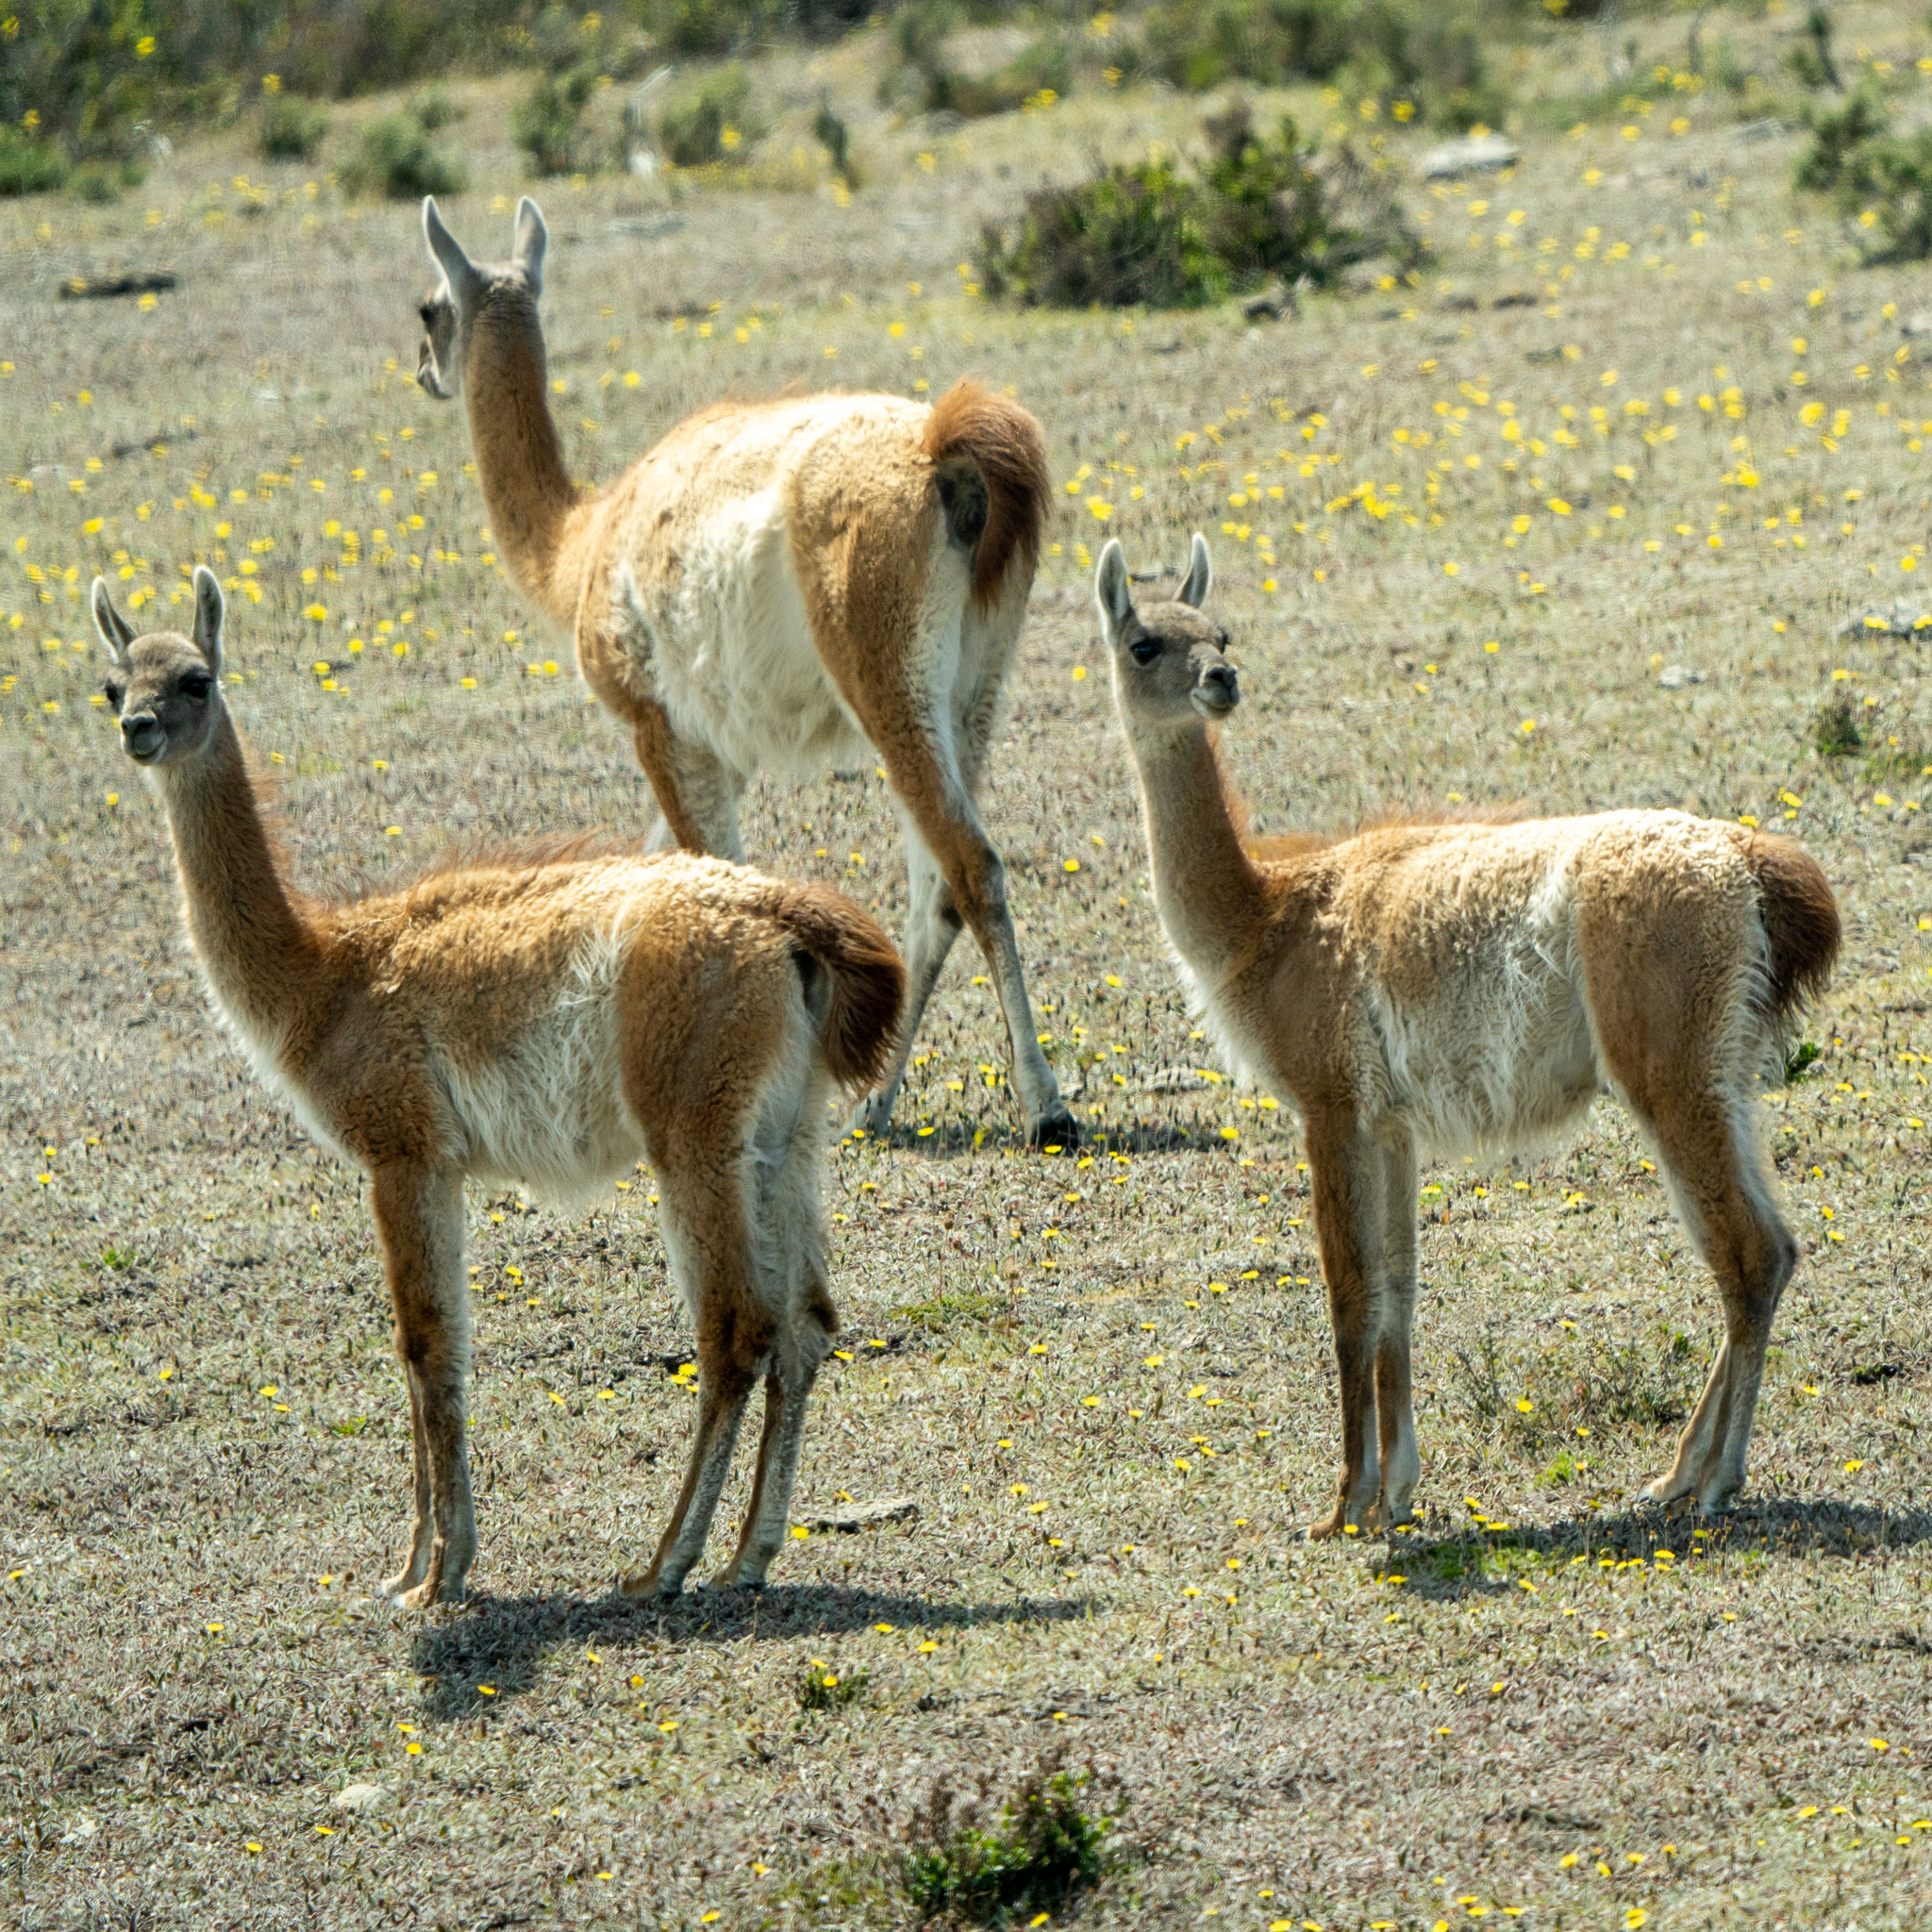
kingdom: Animalia
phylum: Chordata
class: Mammalia
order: Artiodactyla
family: Camelidae
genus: Lama
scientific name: Lama glama
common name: Llama
